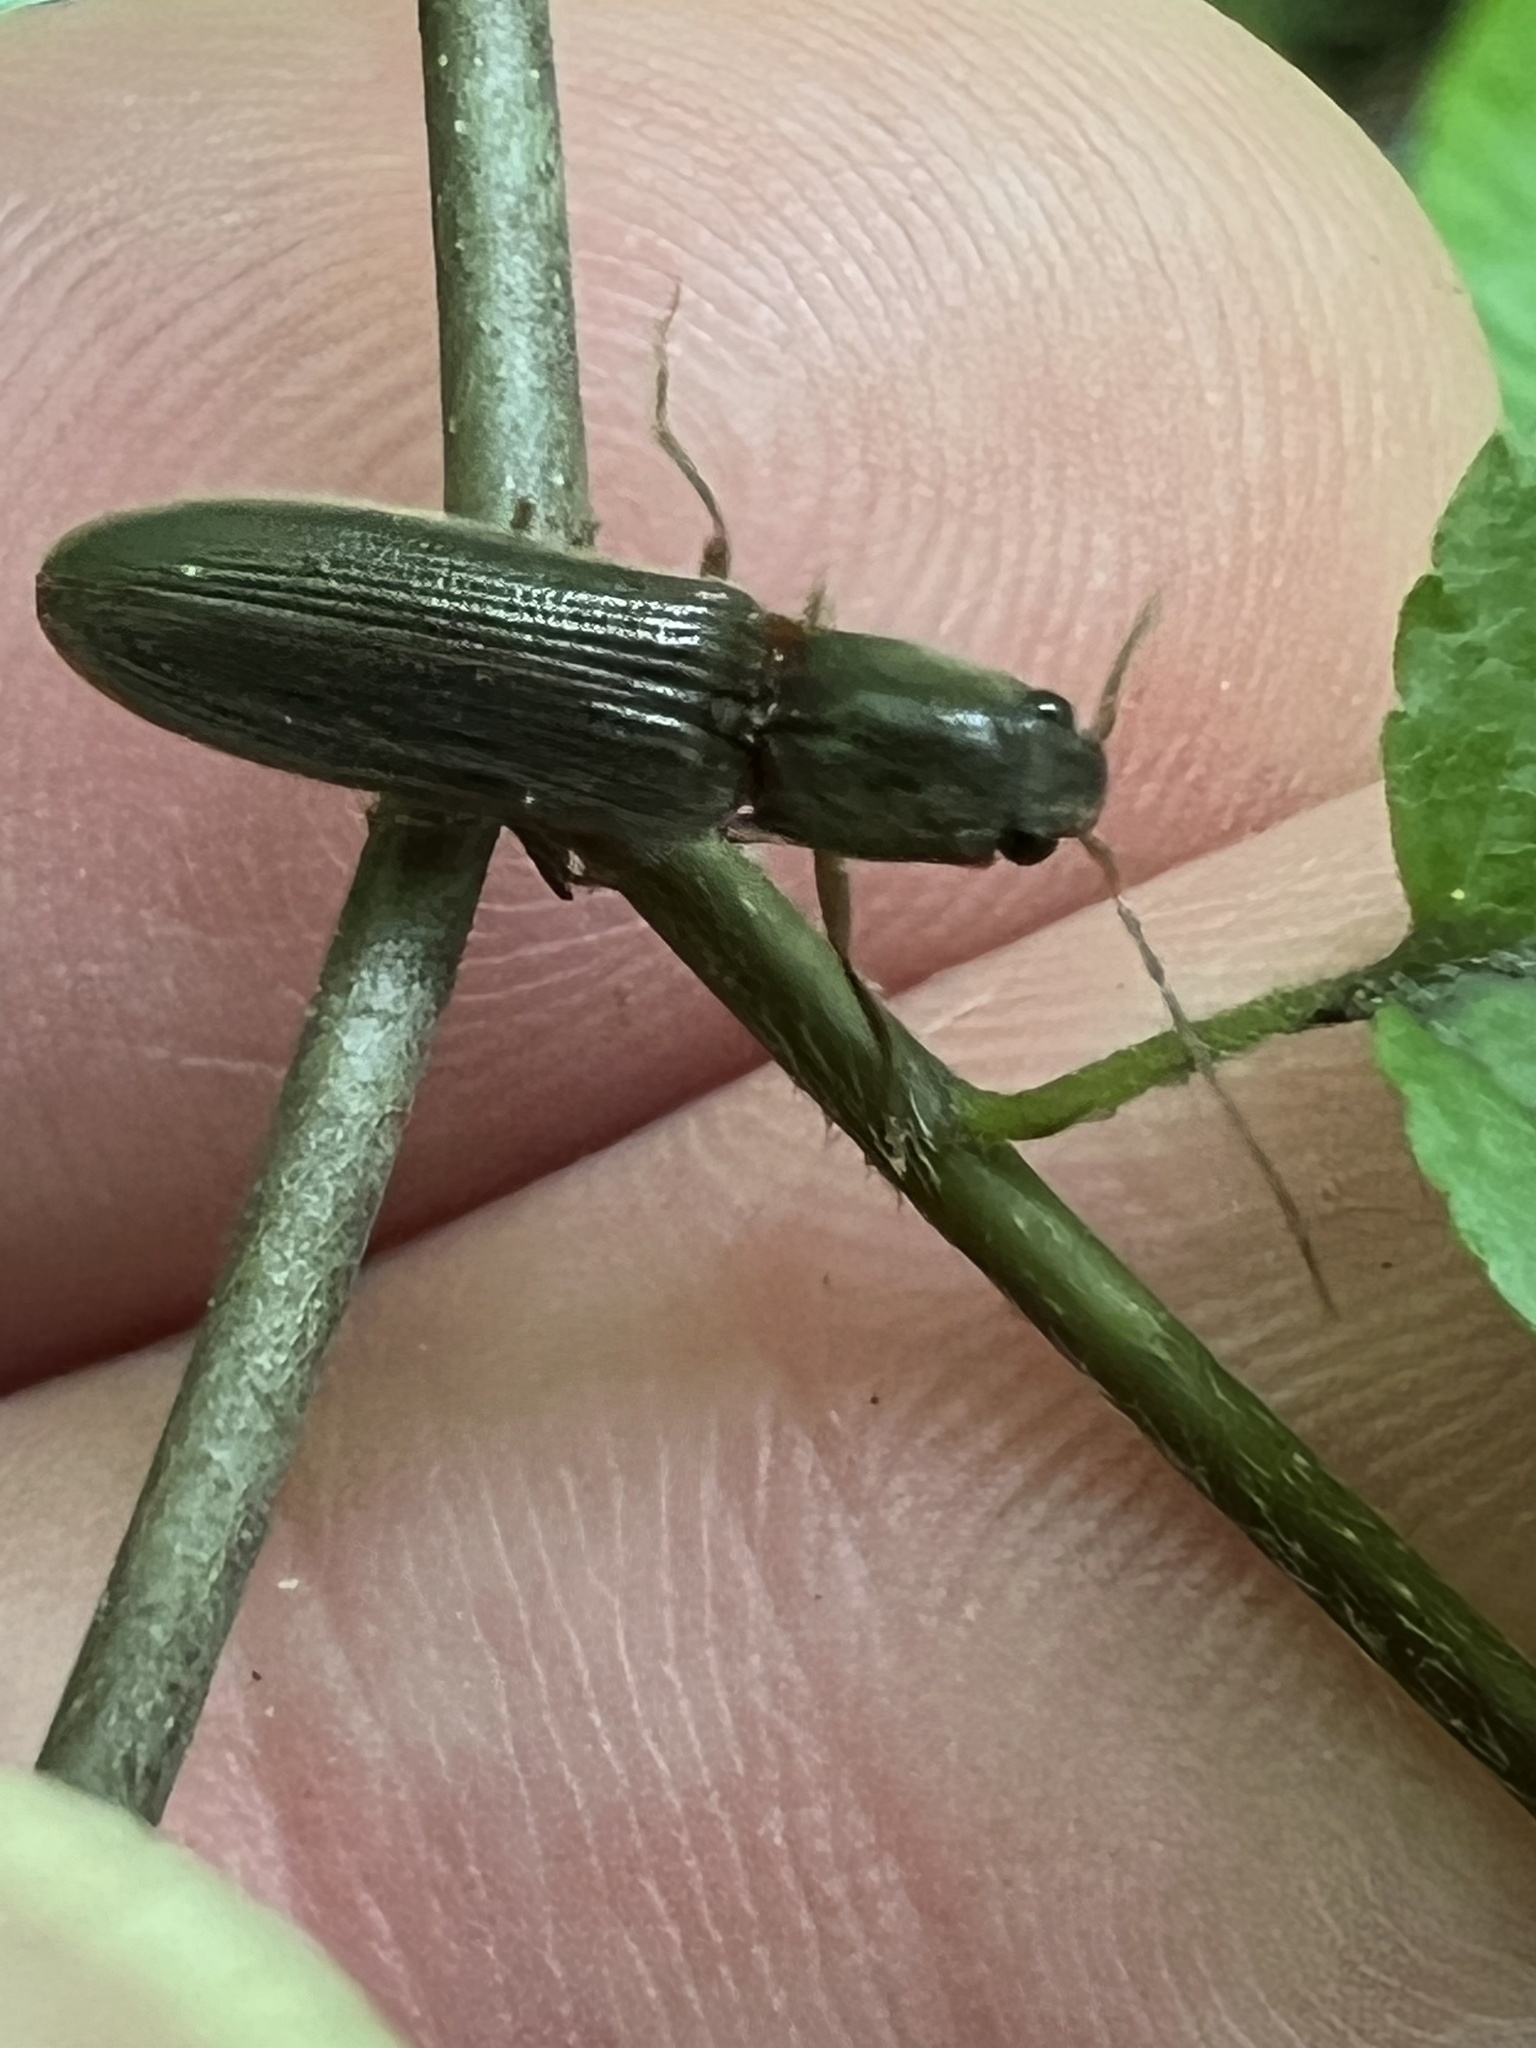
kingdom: Animalia
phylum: Arthropoda
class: Insecta
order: Coleoptera
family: Elateridae
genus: Athous
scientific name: Athous brightwelli
